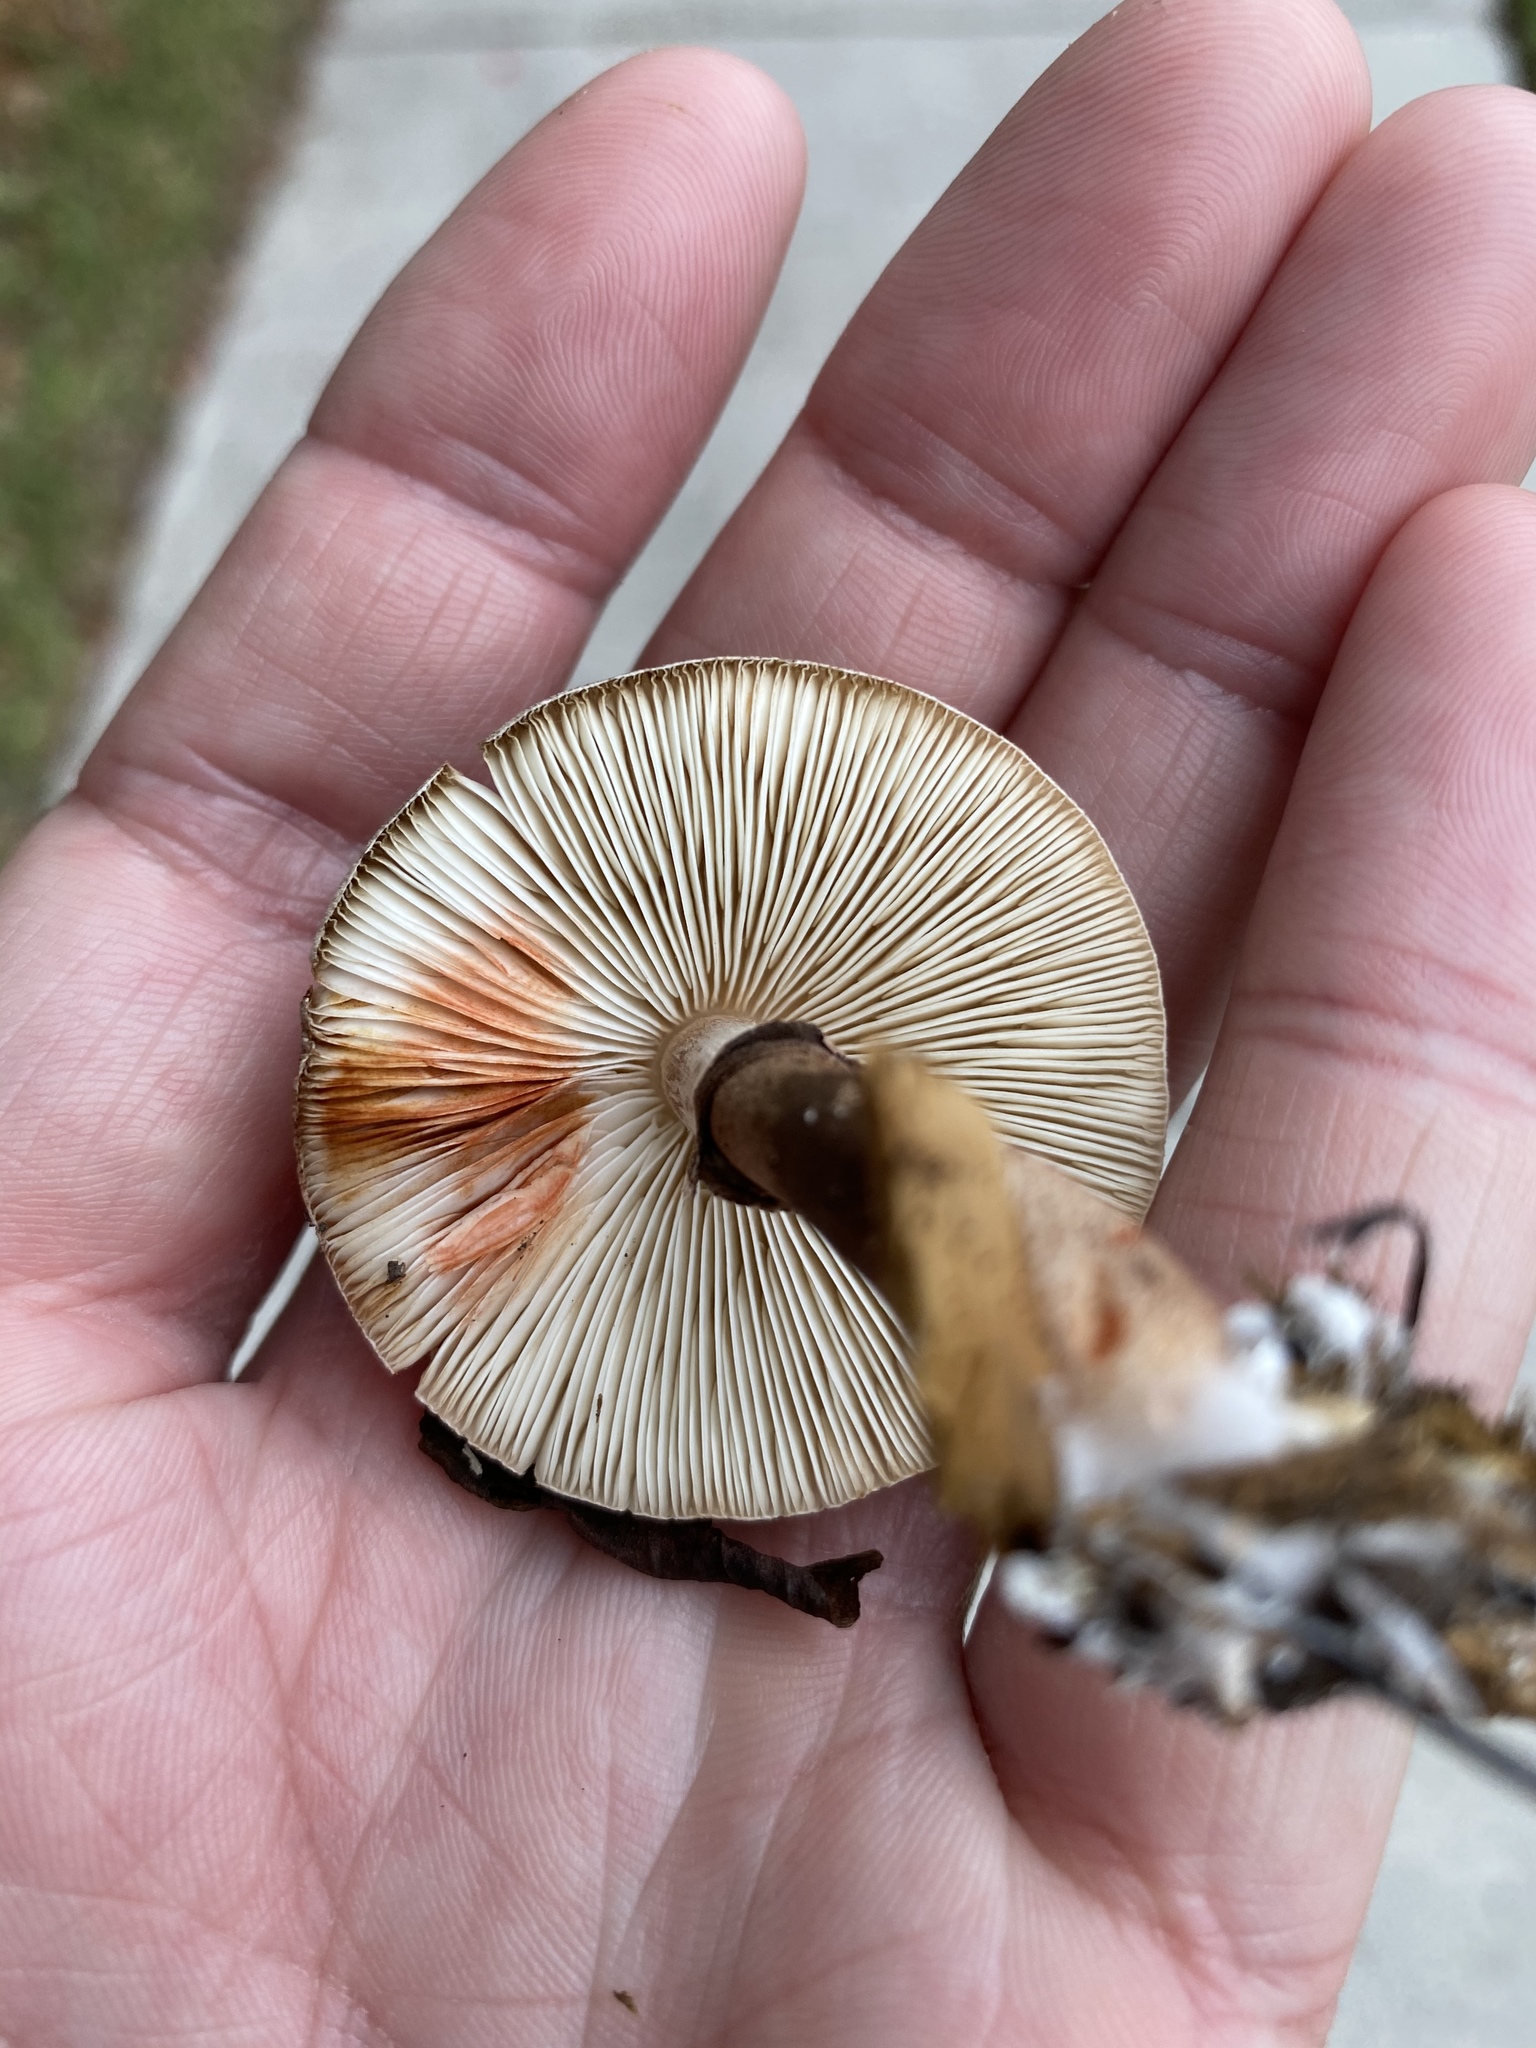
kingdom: Fungi
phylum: Basidiomycota
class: Agaricomycetes
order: Agaricales
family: Agaricaceae
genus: Leucoagaricus
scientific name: Leucoagaricus americanus
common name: Reddening lepiota
